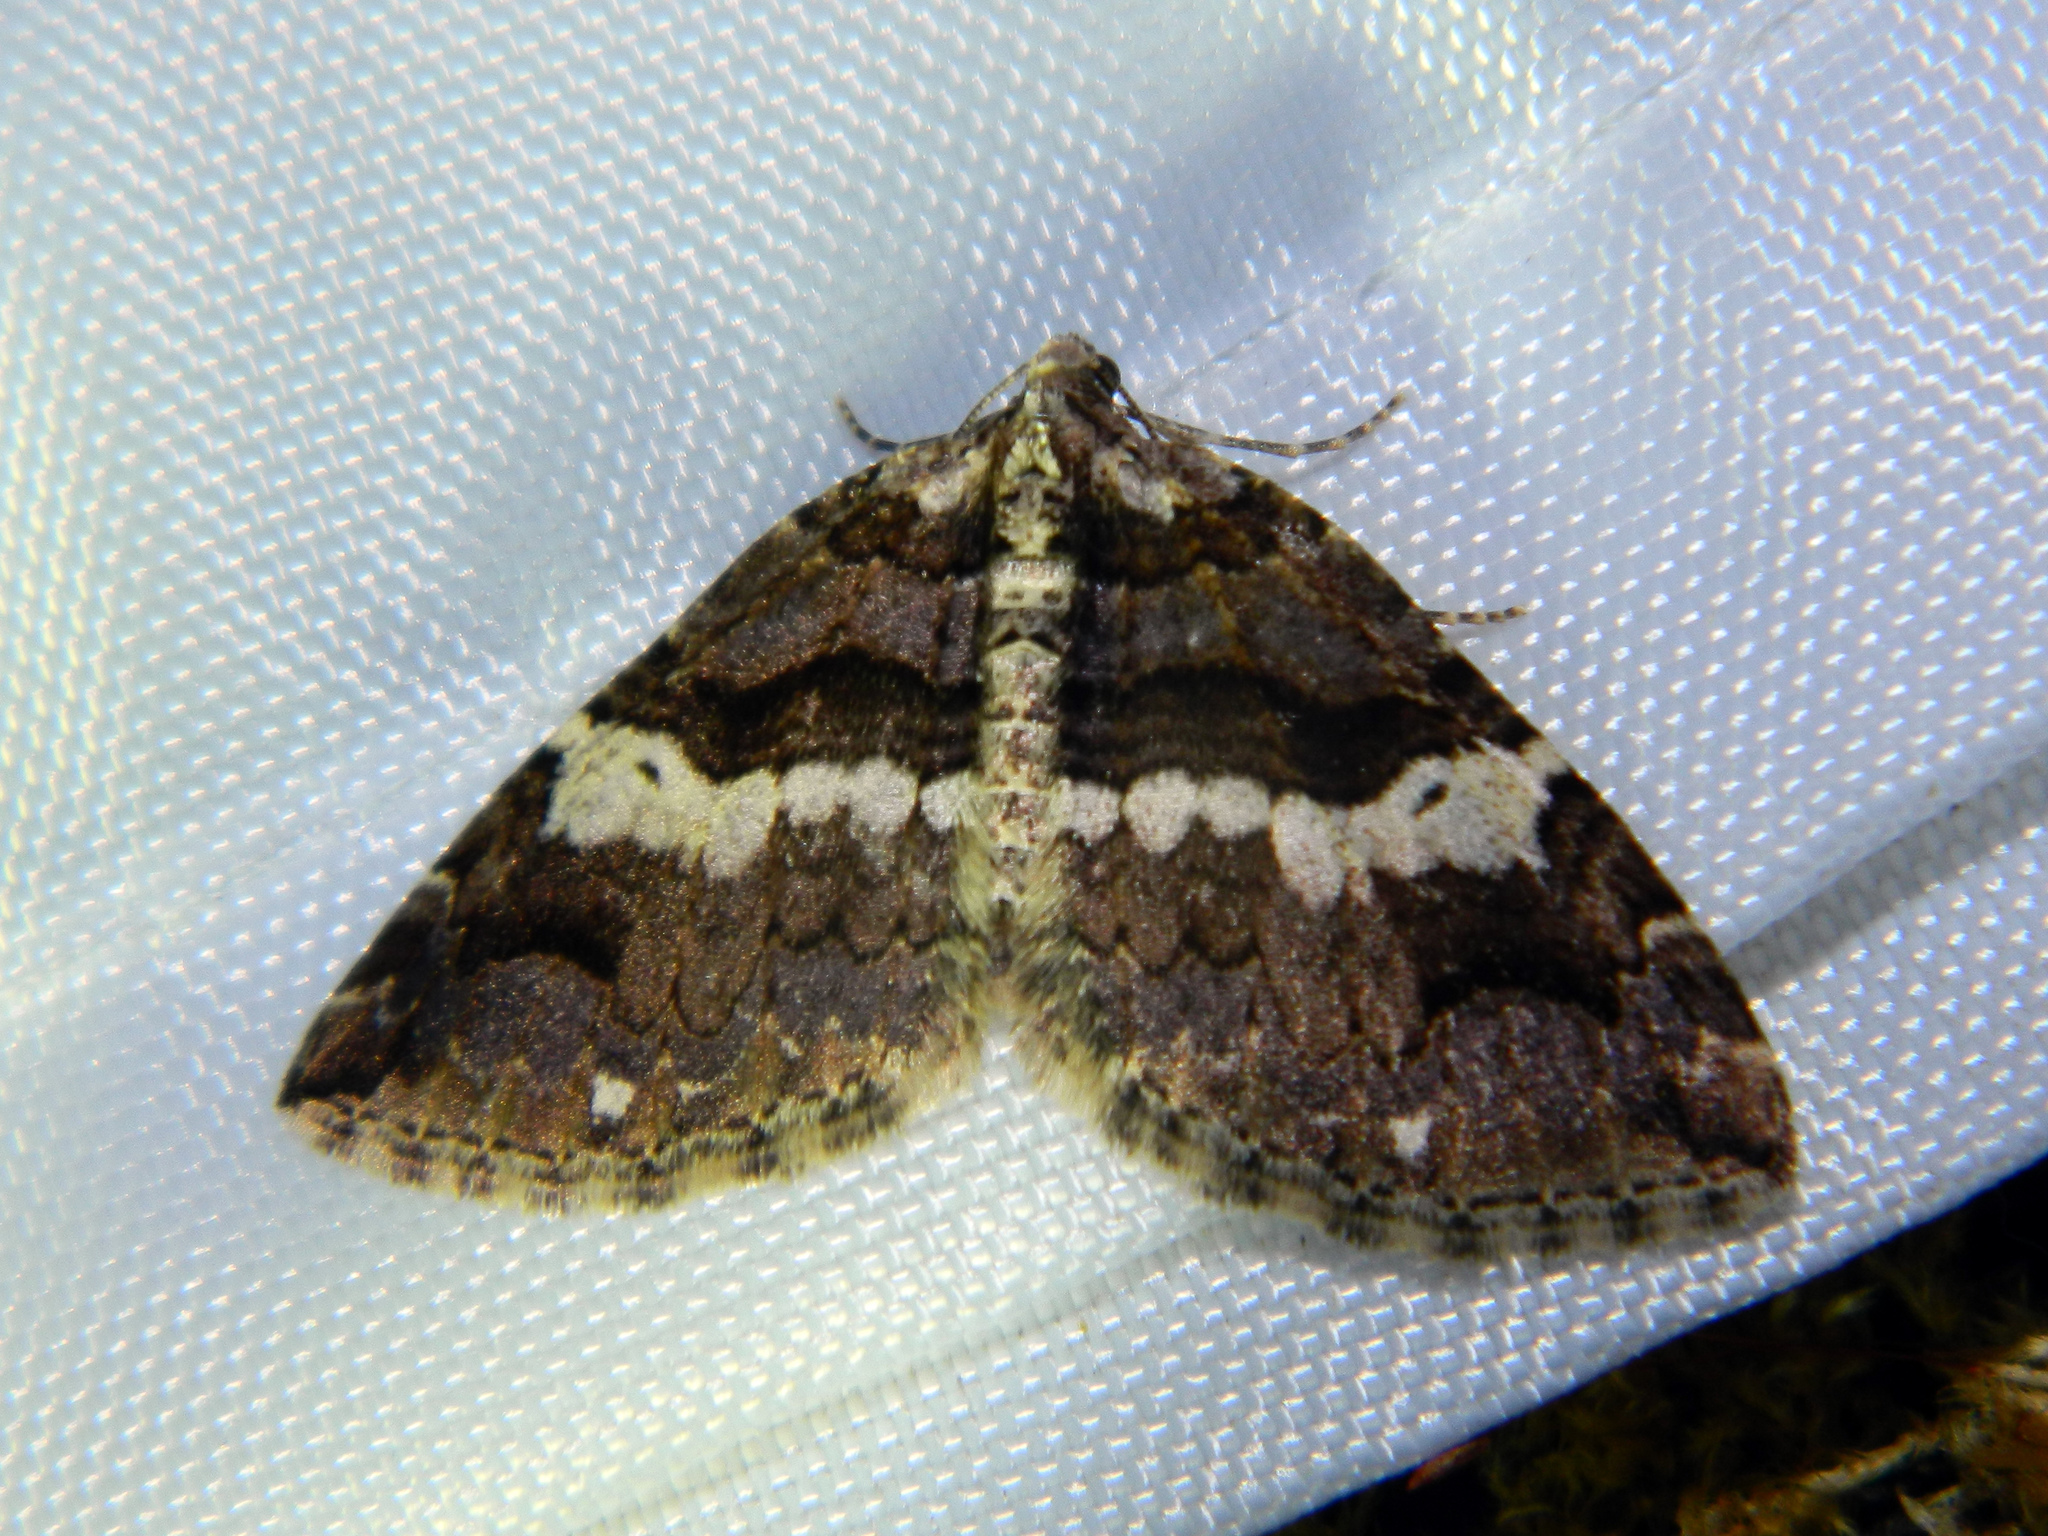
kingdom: Animalia
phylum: Arthropoda
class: Insecta
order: Lepidoptera
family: Geometridae
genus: Anticlea
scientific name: Anticlea vasiliata
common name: Variable carpet
